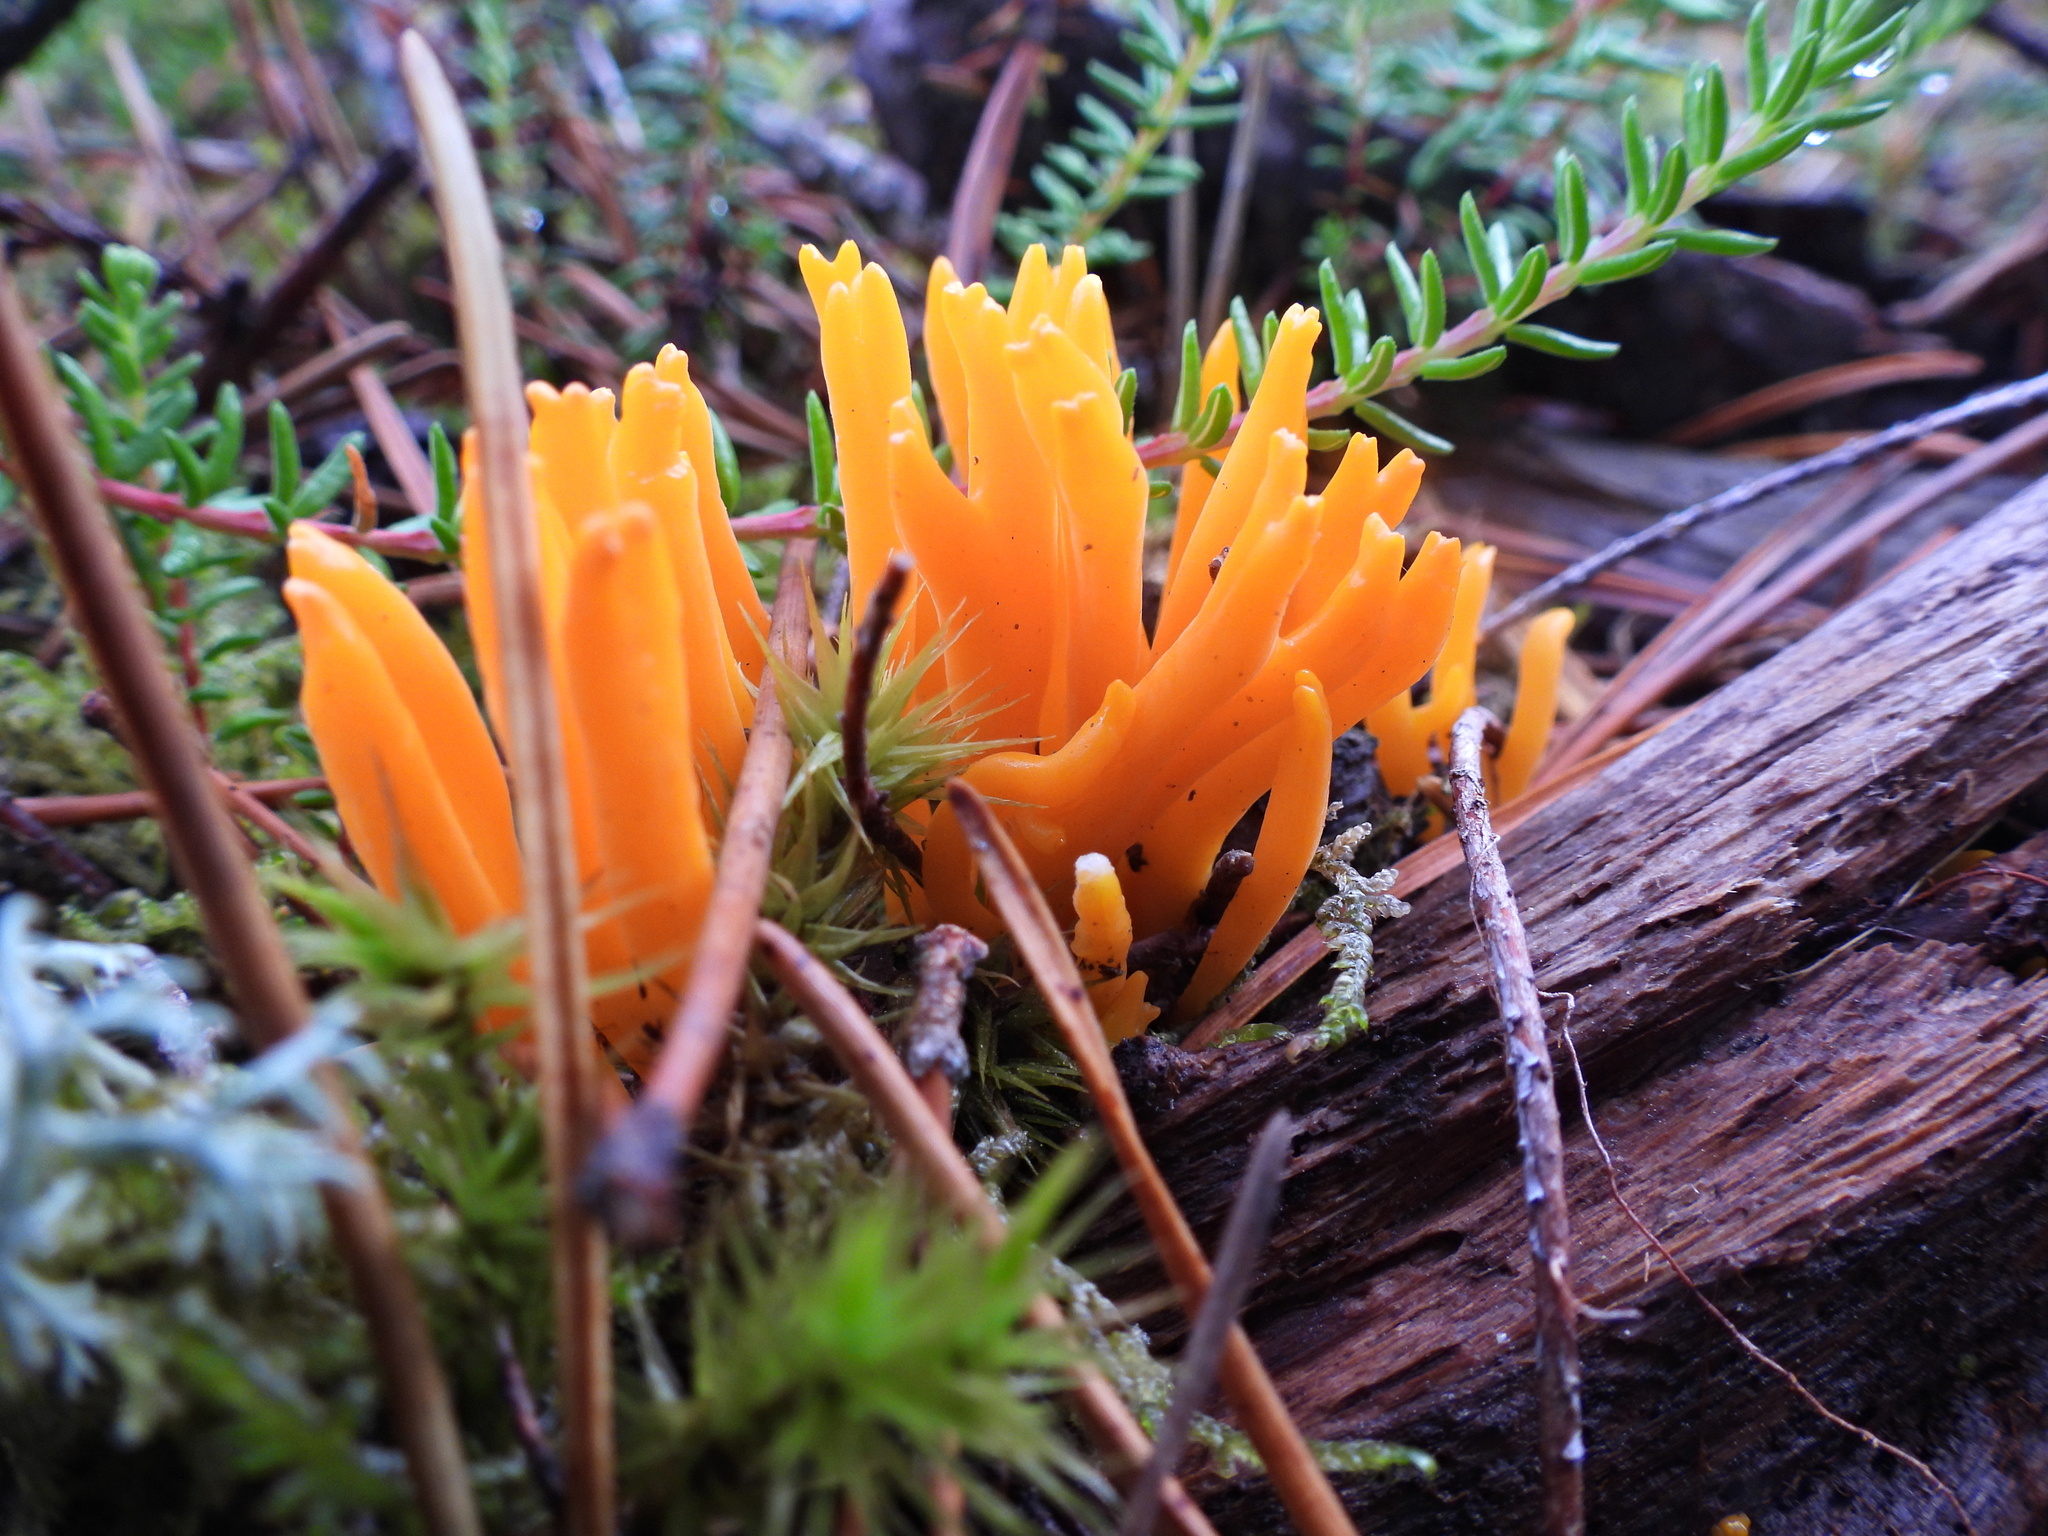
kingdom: Fungi
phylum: Basidiomycota
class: Dacrymycetes
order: Dacrymycetales
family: Dacrymycetaceae
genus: Calocera
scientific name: Calocera viscosa
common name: Yellow stagshorn
